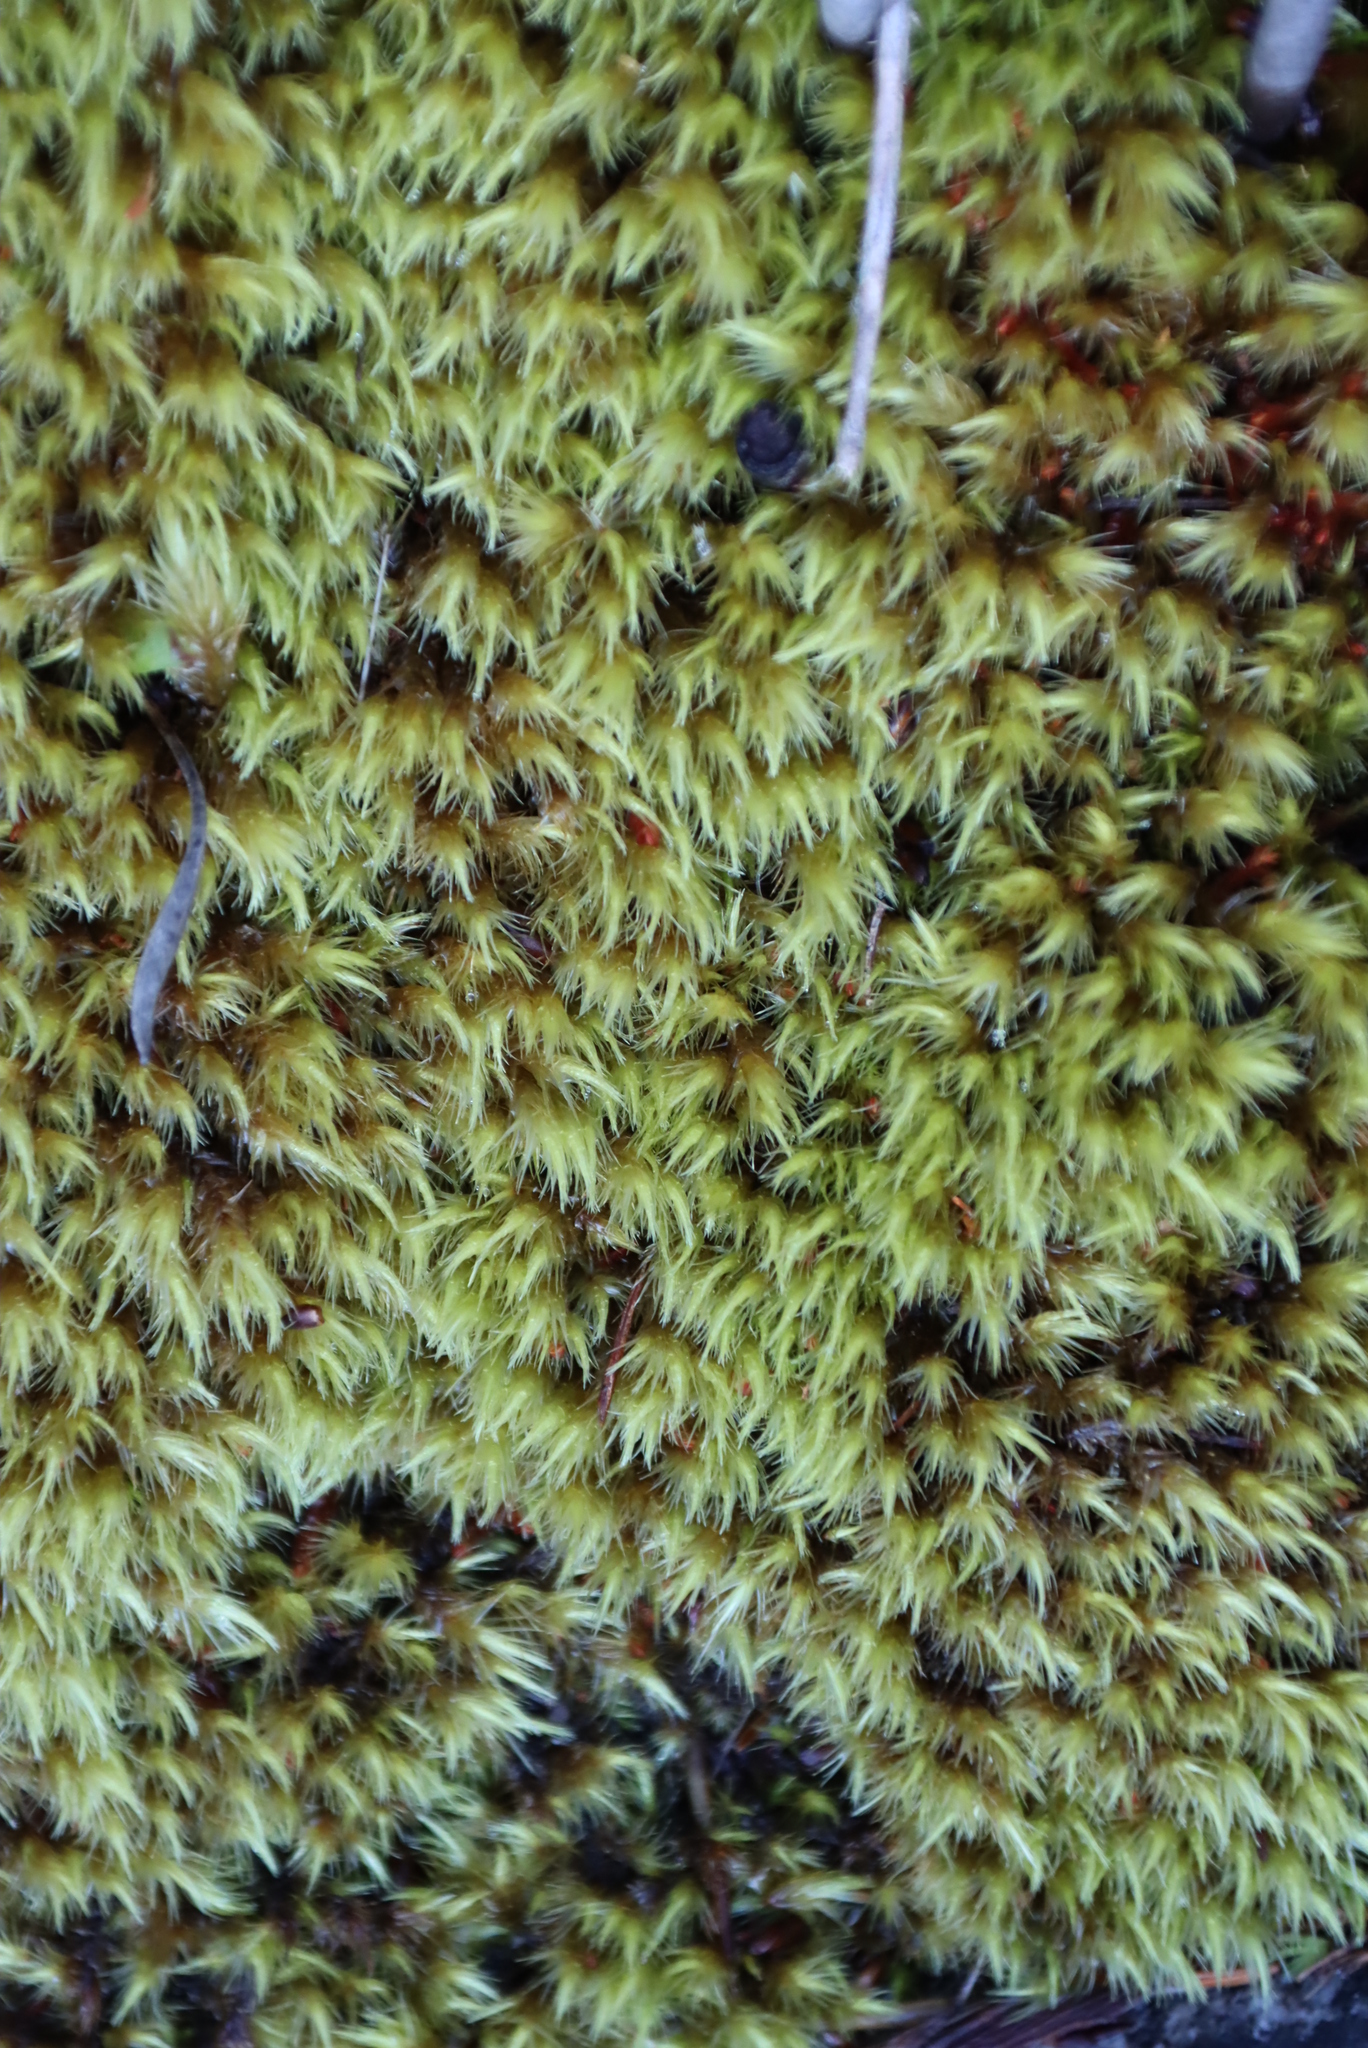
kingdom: Plantae
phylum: Bryophyta
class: Bryopsida
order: Dicranales
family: Dicranaceae
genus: Dicranoloma
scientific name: Dicranoloma billardieri
